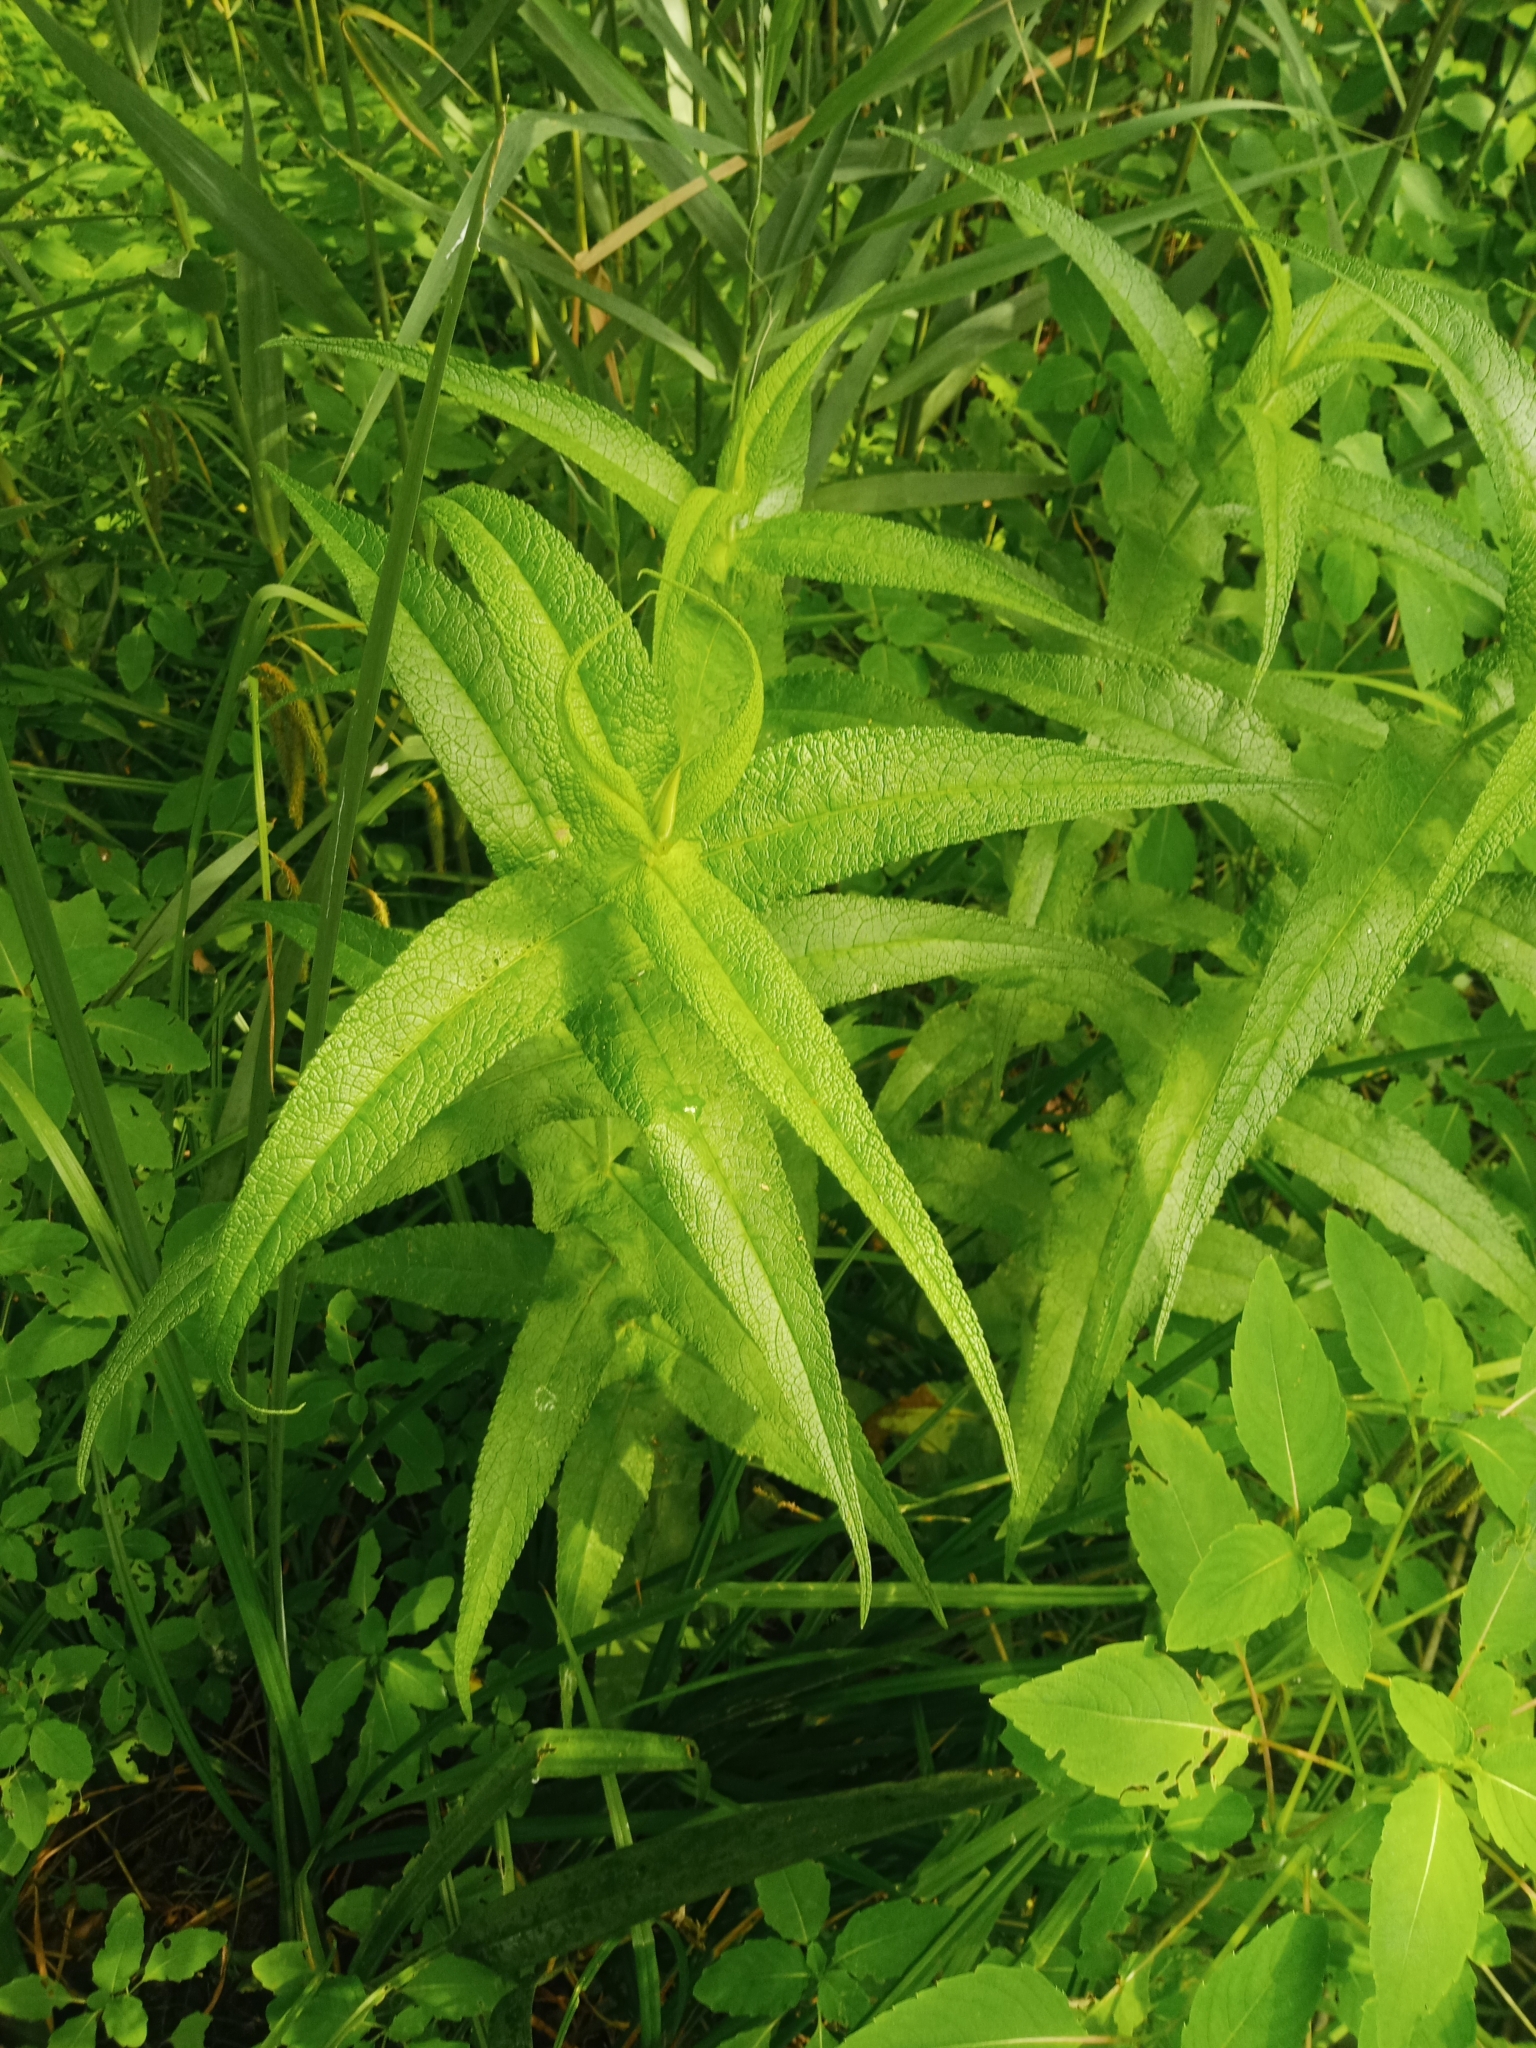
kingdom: Plantae
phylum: Tracheophyta
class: Magnoliopsida
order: Asterales
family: Asteraceae
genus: Eupatorium
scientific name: Eupatorium perfoliatum
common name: Boneset
